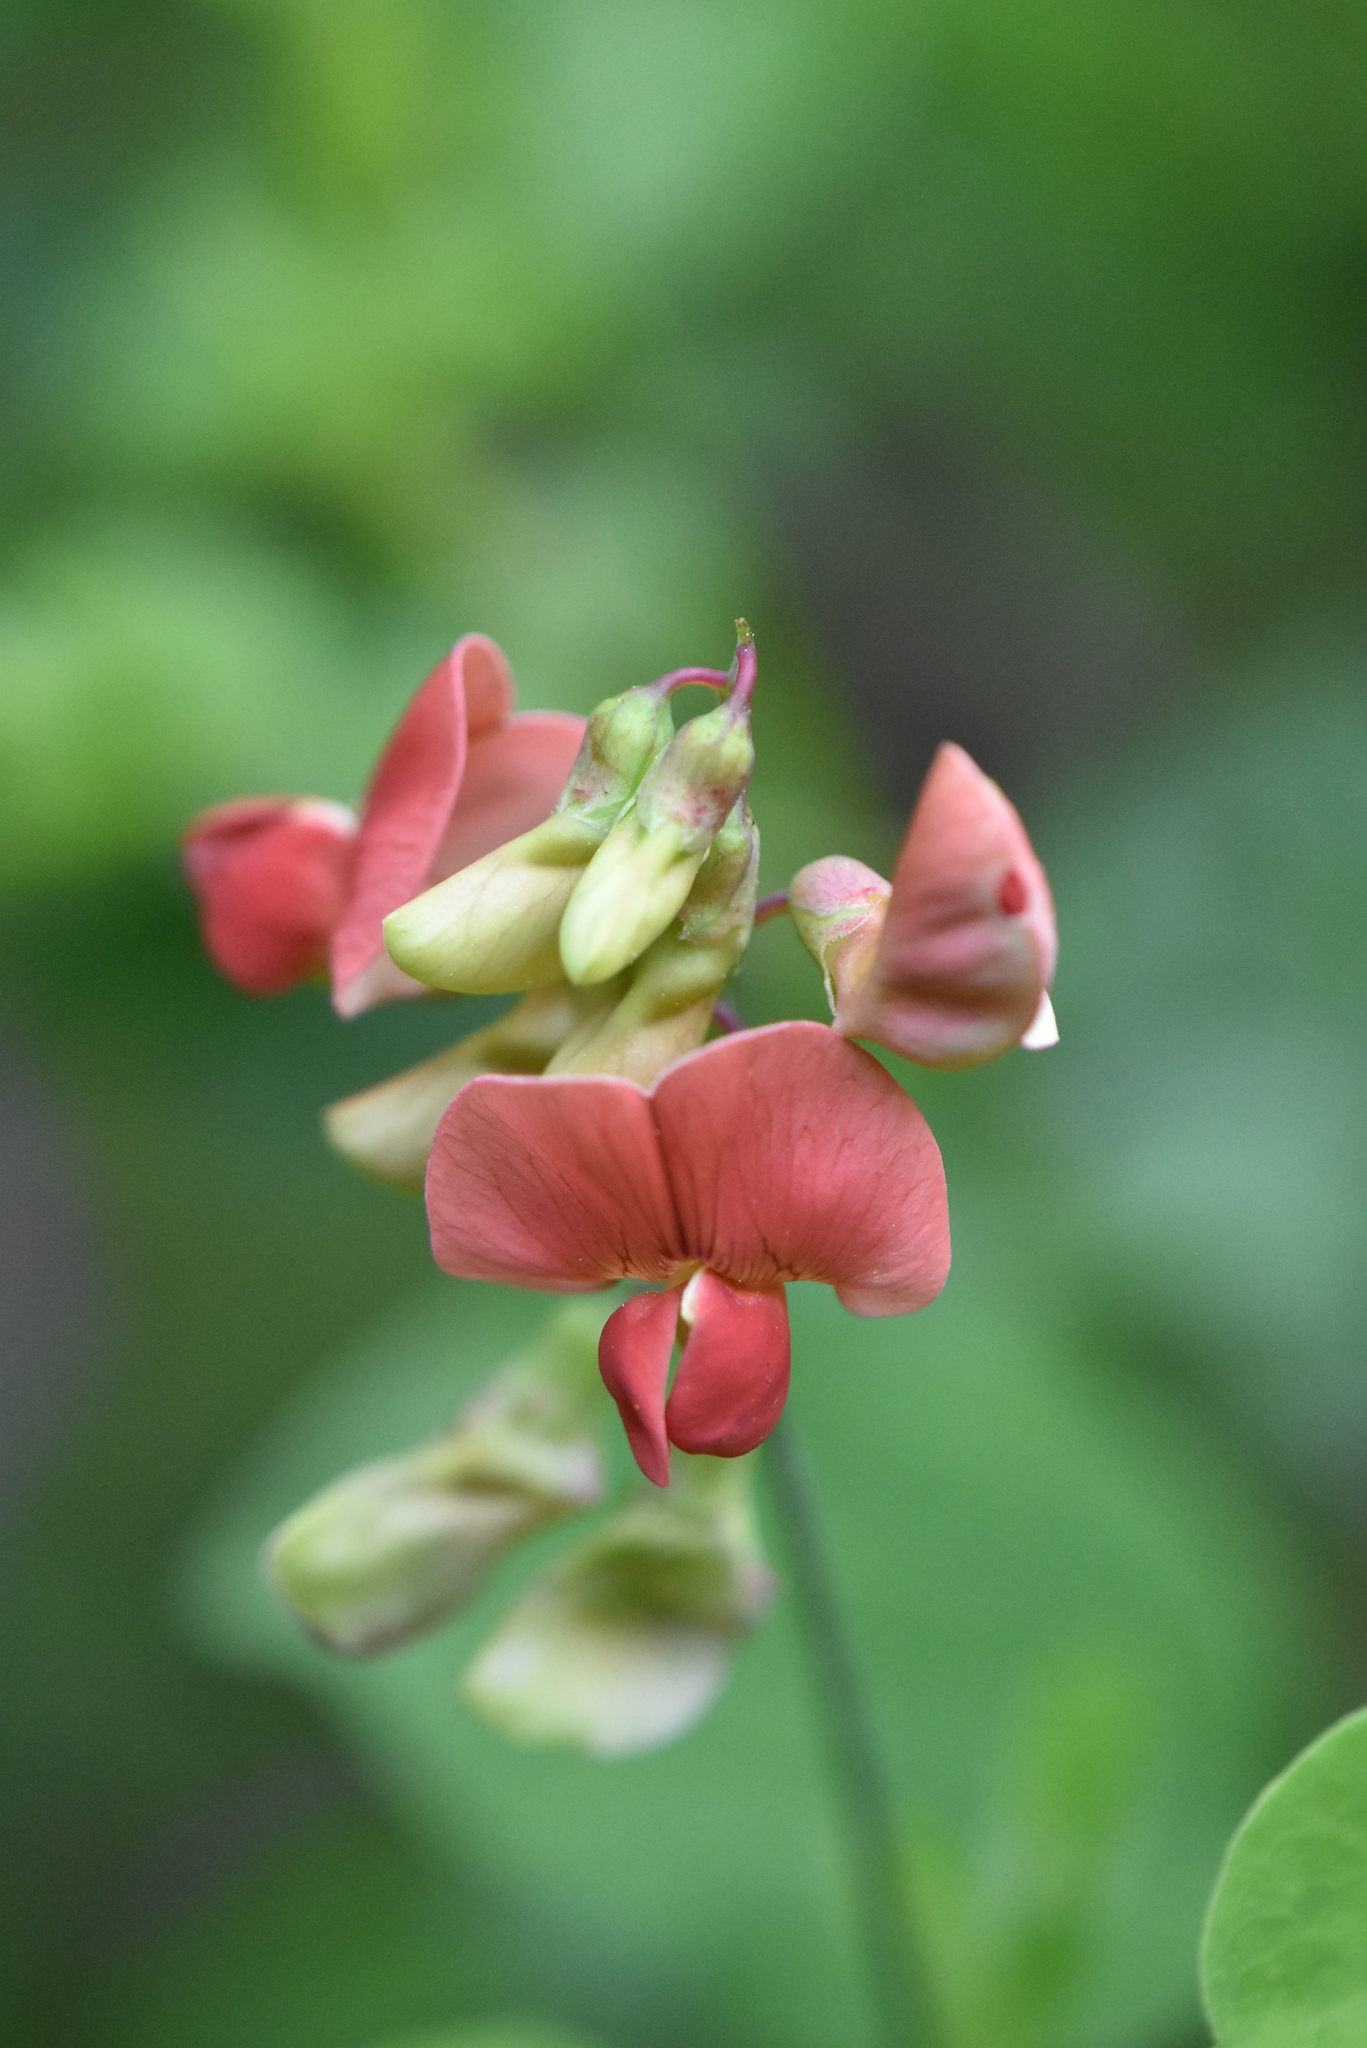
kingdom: Plantae
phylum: Tracheophyta
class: Magnoliopsida
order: Fabales
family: Fabaceae
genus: Lathyrus
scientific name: Lathyrus rotundifolius
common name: Round-leaf vetchling
